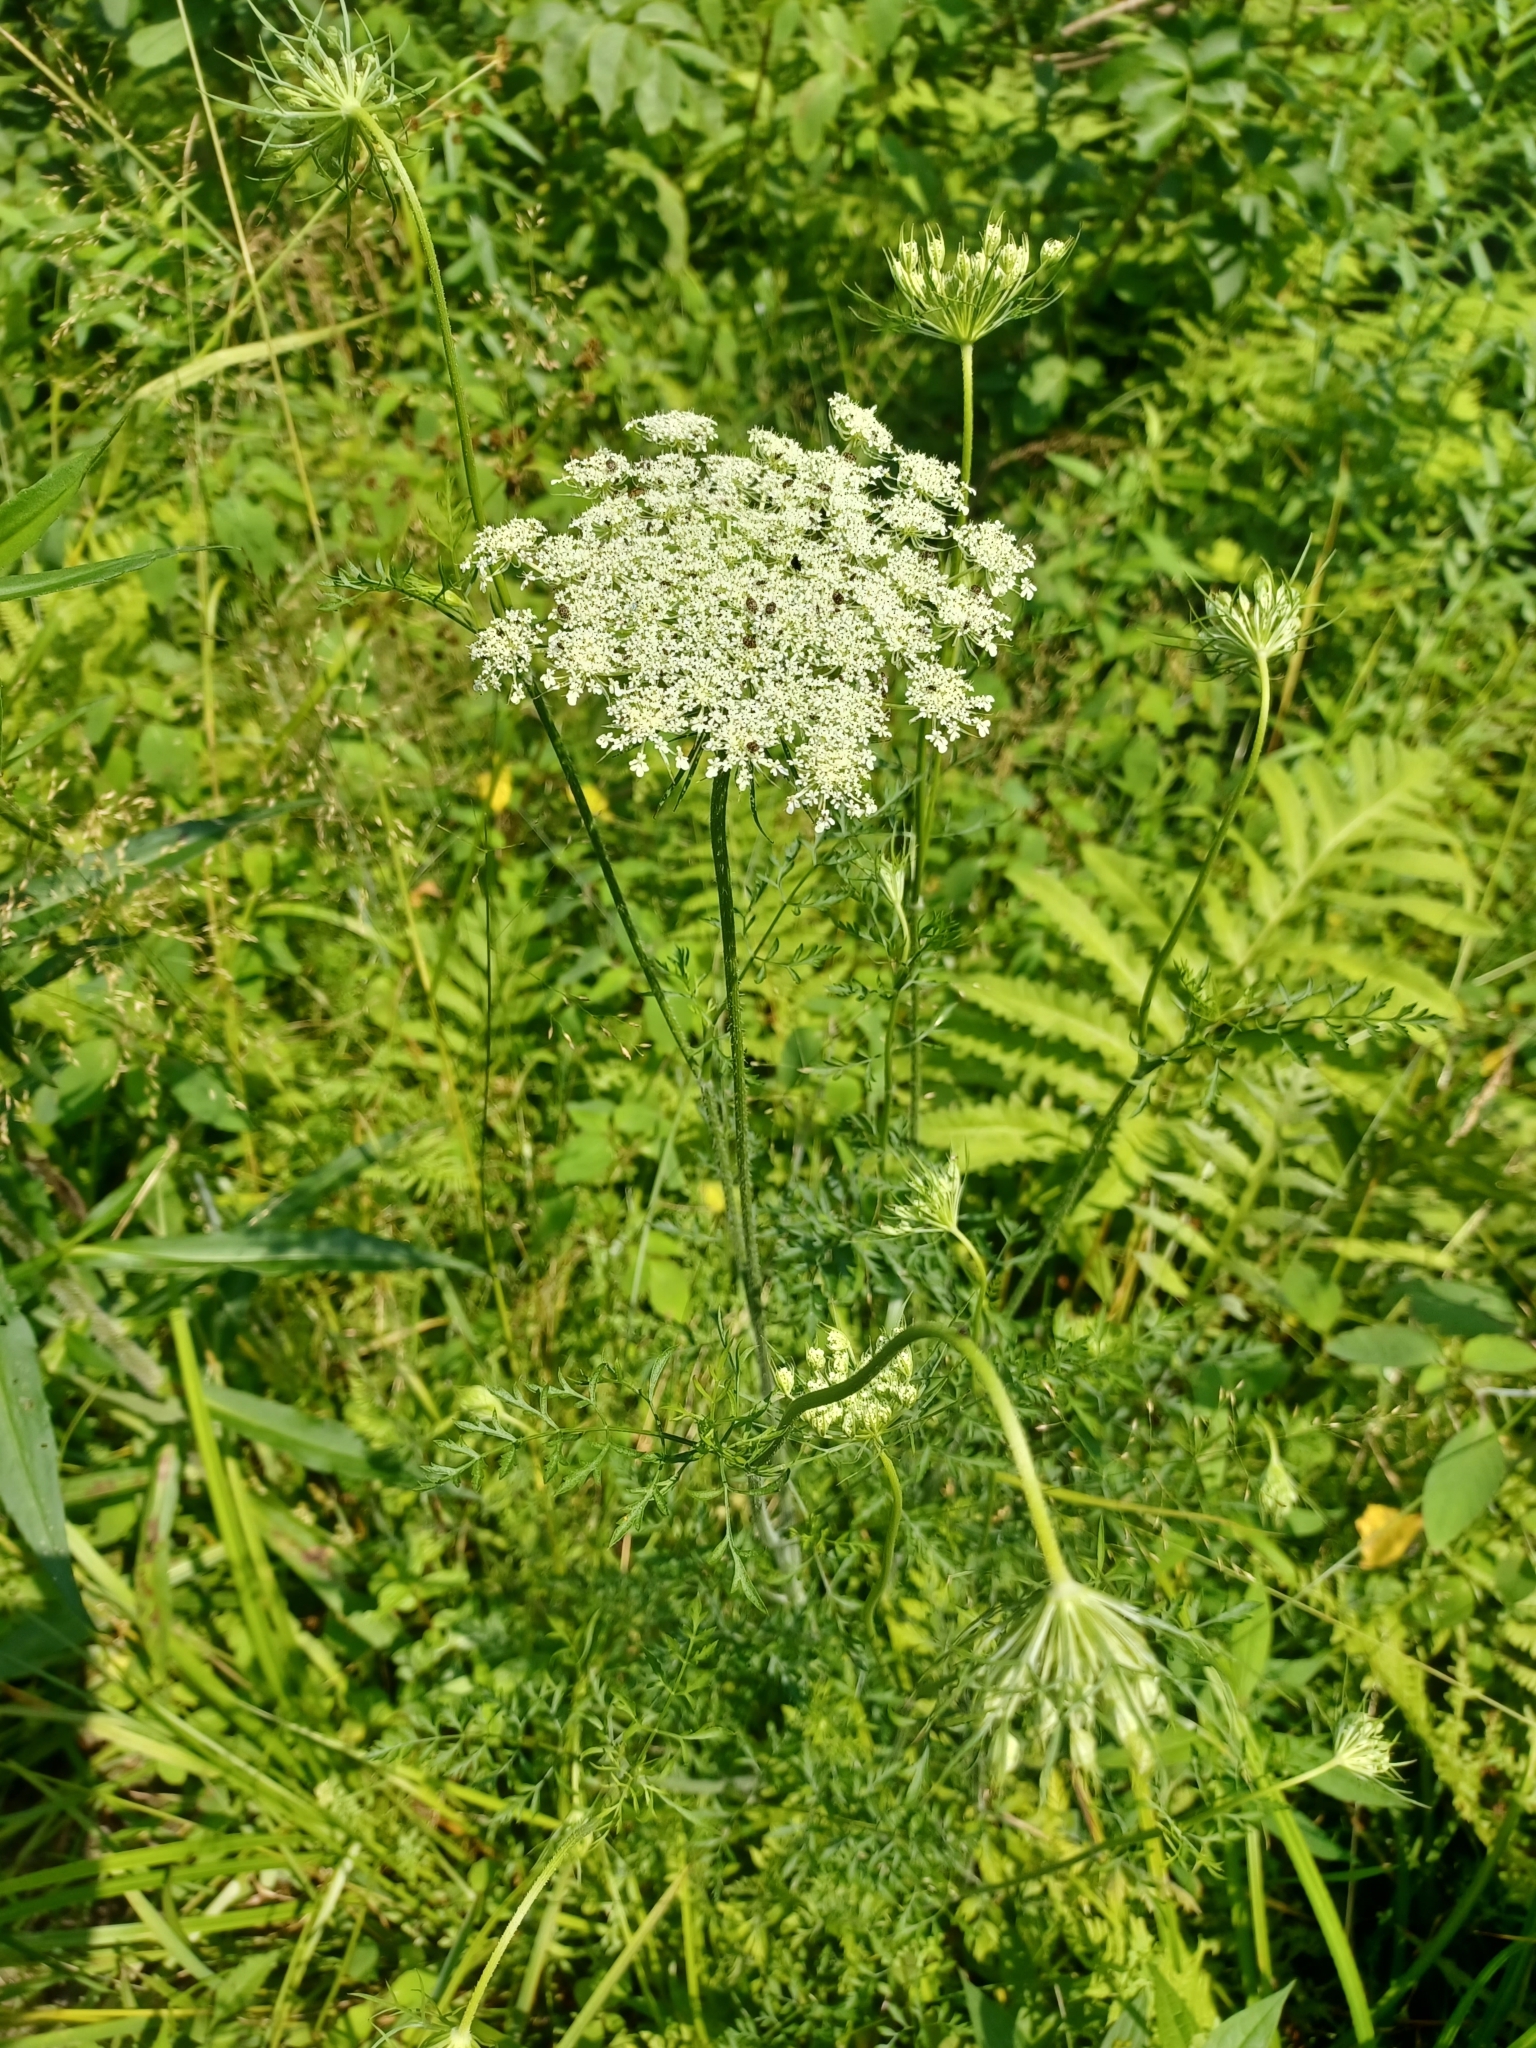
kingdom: Plantae
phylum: Tracheophyta
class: Magnoliopsida
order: Apiales
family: Apiaceae
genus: Daucus
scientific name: Daucus carota
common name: Wild carrot
